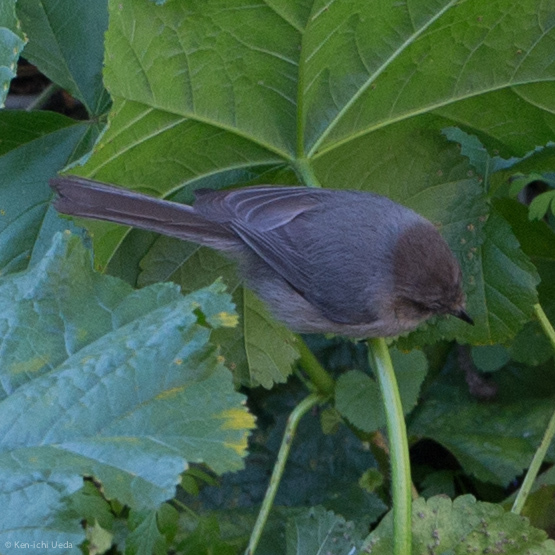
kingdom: Animalia
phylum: Chordata
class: Aves
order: Passeriformes
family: Aegithalidae
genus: Psaltriparus
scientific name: Psaltriparus minimus
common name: American bushtit
